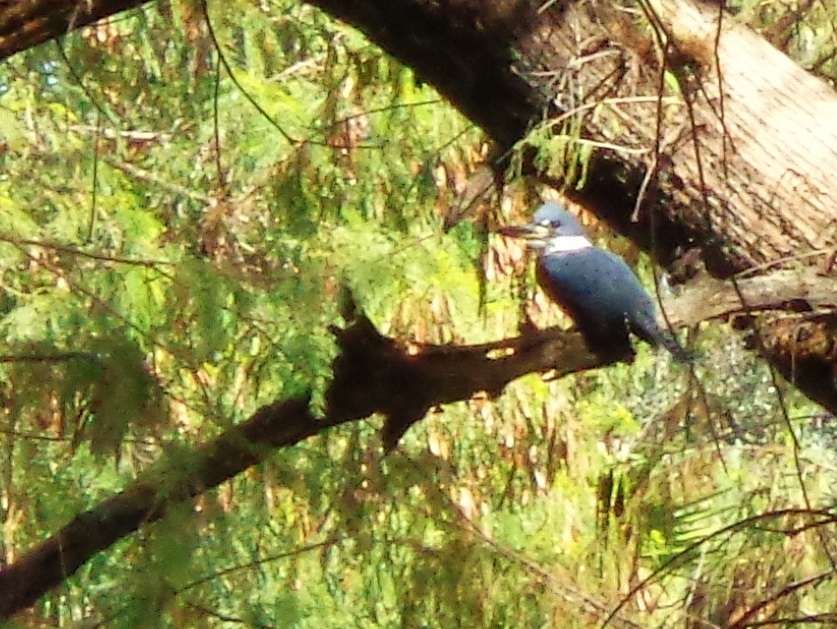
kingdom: Animalia
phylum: Chordata
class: Aves
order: Coraciiformes
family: Alcedinidae
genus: Megaceryle
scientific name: Megaceryle torquata
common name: Ringed kingfisher
